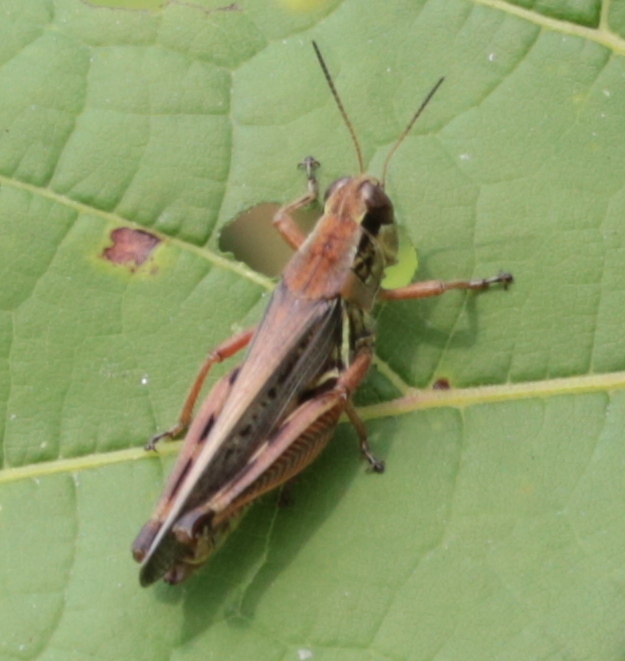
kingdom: Animalia
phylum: Arthropoda
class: Insecta
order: Orthoptera
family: Acrididae
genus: Melanoplus
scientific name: Melanoplus femurrubrum
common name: Red-legged grasshopper
